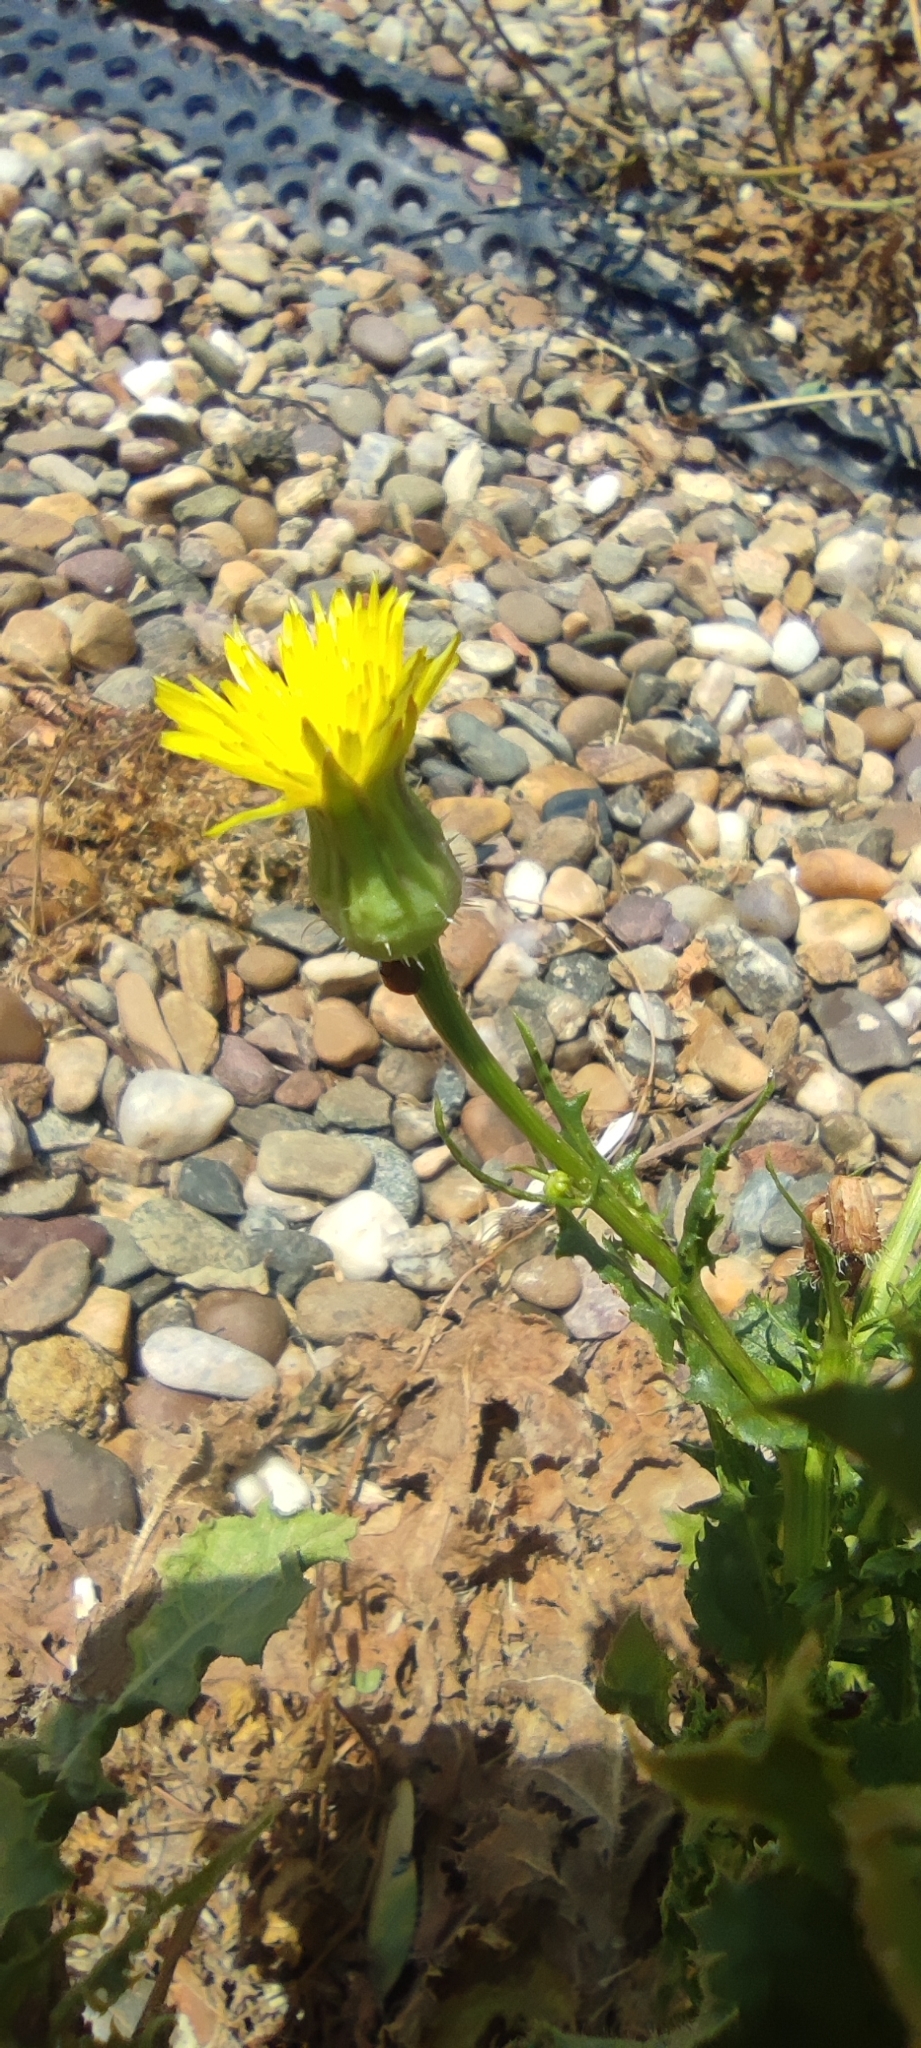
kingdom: Plantae
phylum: Tracheophyta
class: Magnoliopsida
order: Asterales
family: Asteraceae
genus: Urospermum
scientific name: Urospermum picroides
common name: False hawkbit
